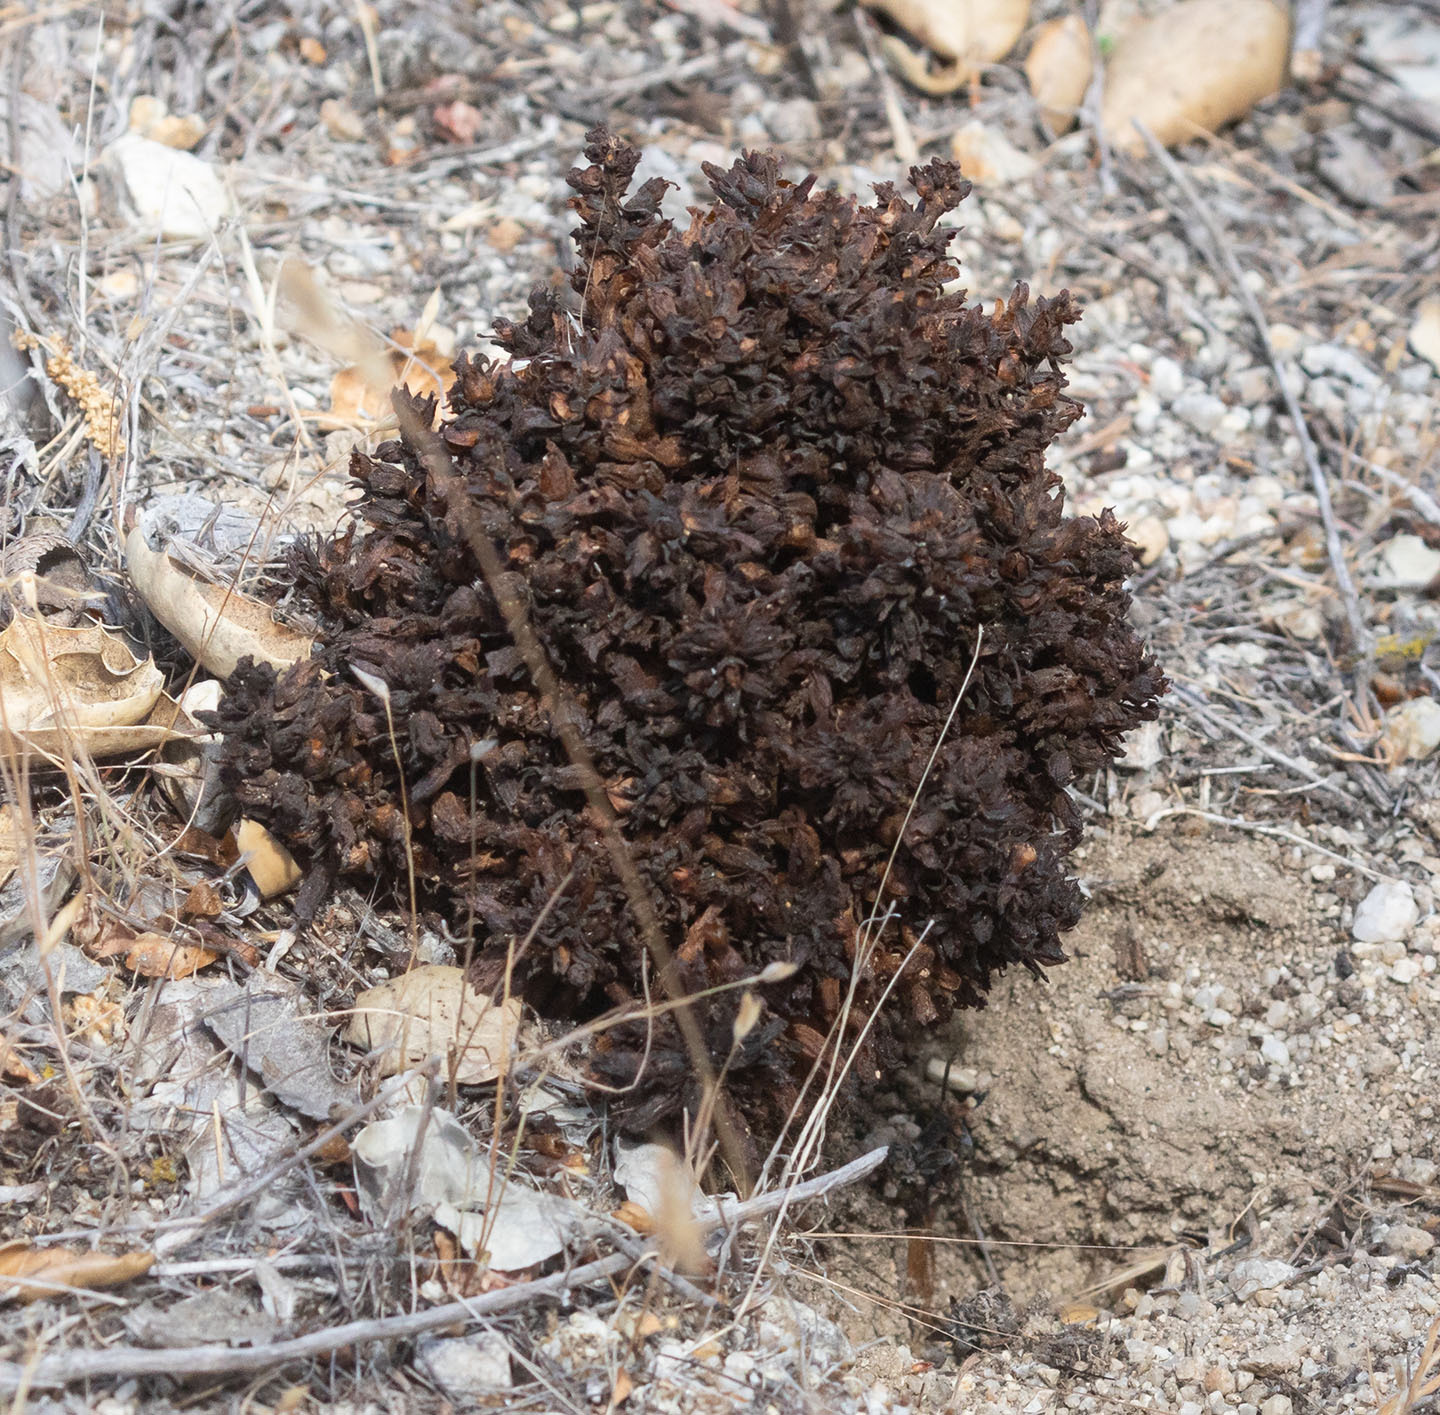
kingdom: Plantae
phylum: Tracheophyta
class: Magnoliopsida
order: Lamiales
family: Orobanchaceae
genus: Aphyllon
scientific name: Aphyllon tuberosum
